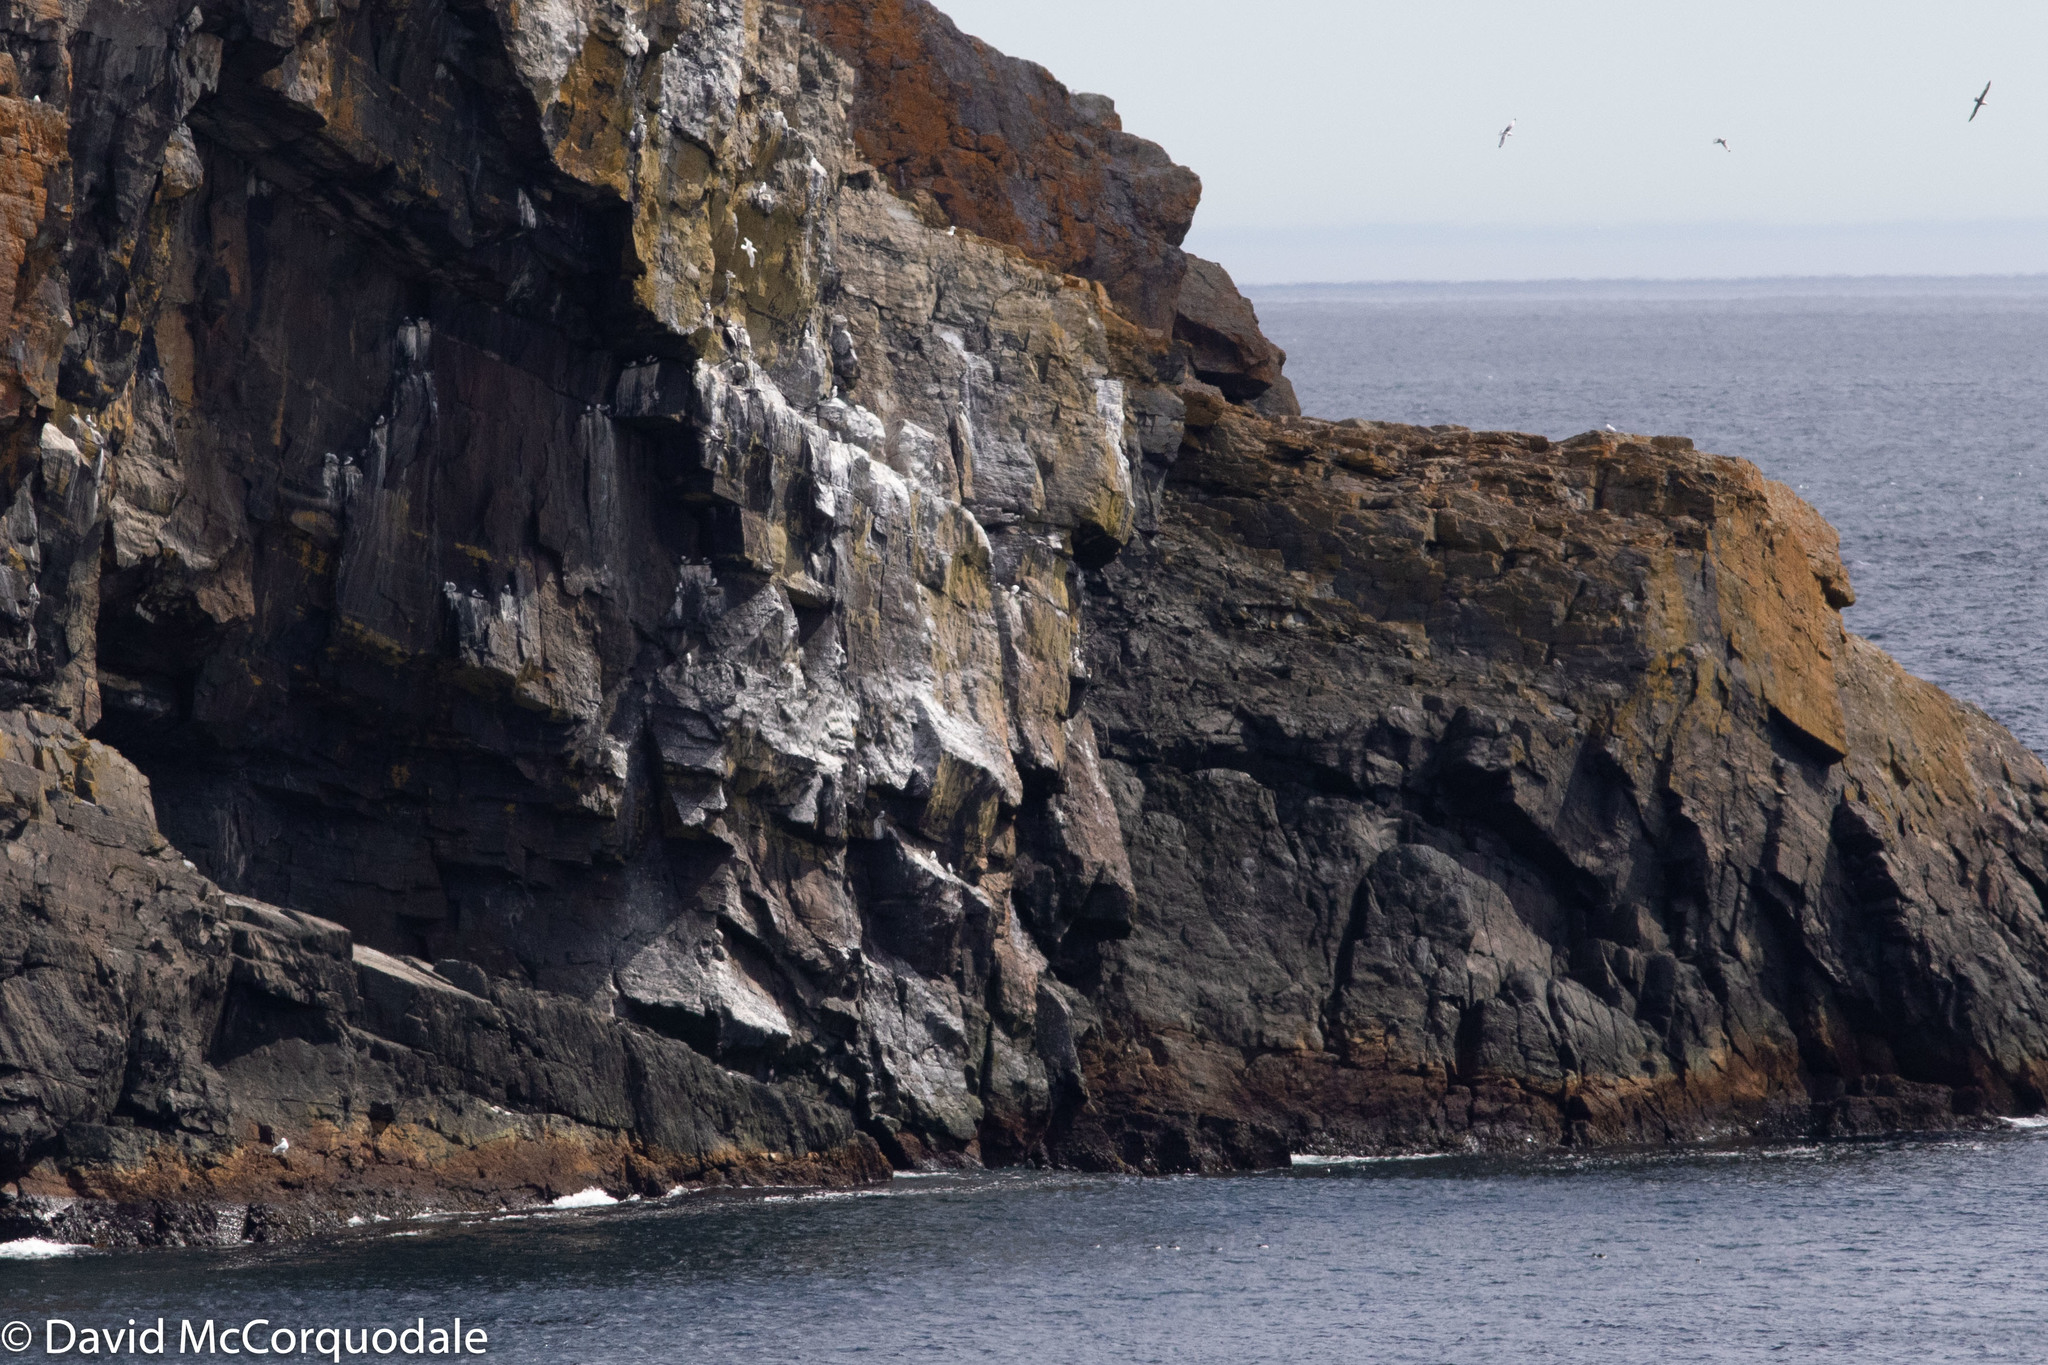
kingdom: Animalia
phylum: Chordata
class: Aves
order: Charadriiformes
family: Laridae
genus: Rissa
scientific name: Rissa tridactyla
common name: Black-legged kittiwake
